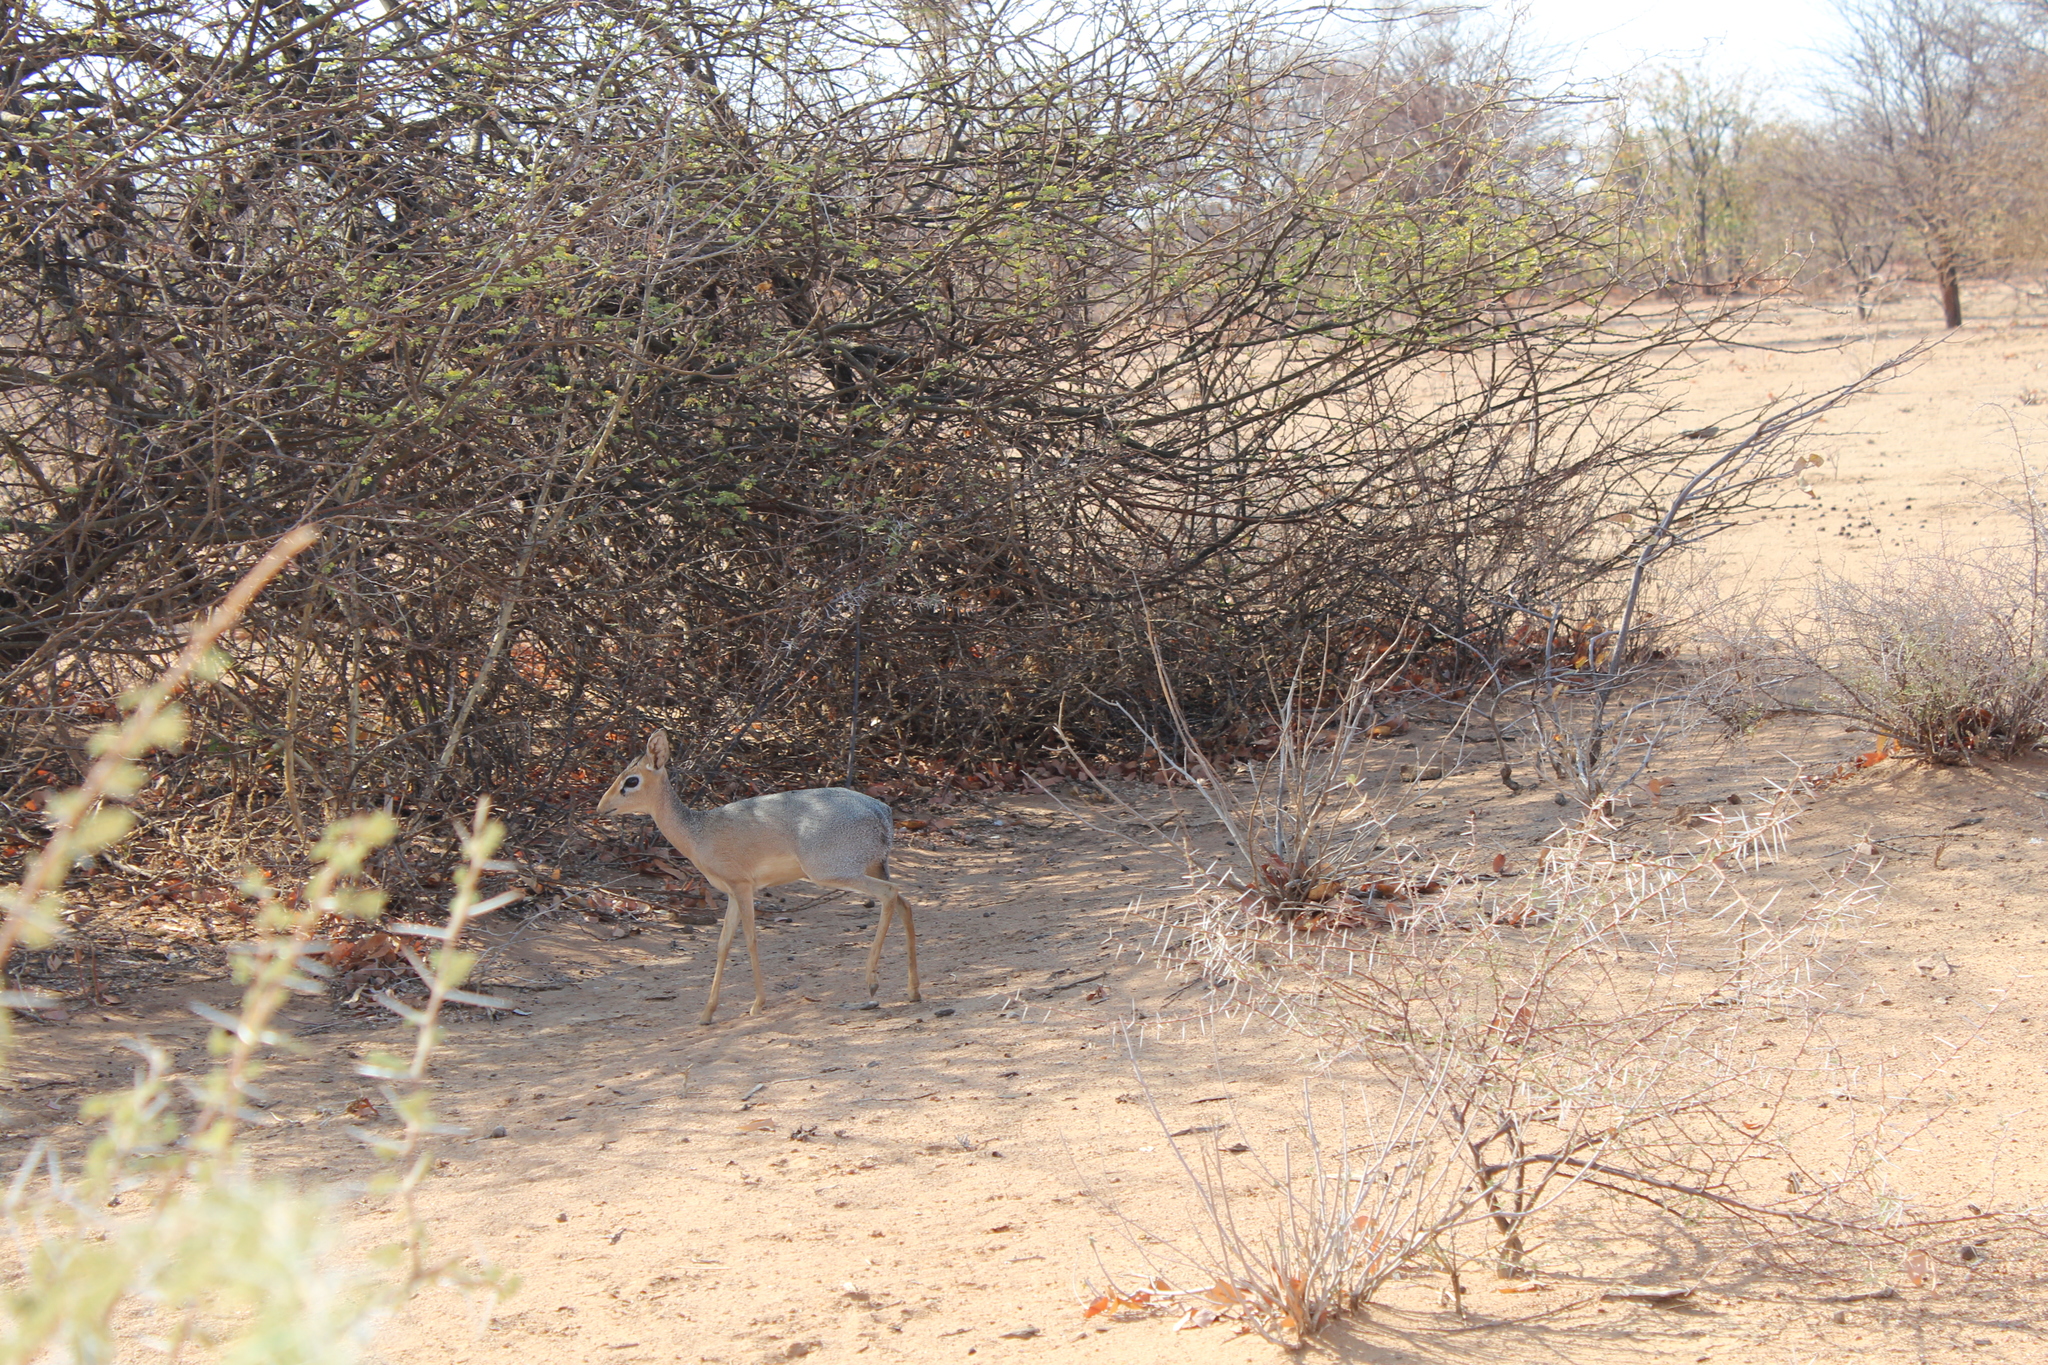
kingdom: Animalia
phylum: Chordata
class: Mammalia
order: Artiodactyla
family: Bovidae
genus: Madoqua
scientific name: Madoqua kirkii
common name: Kirk's dik-dik
